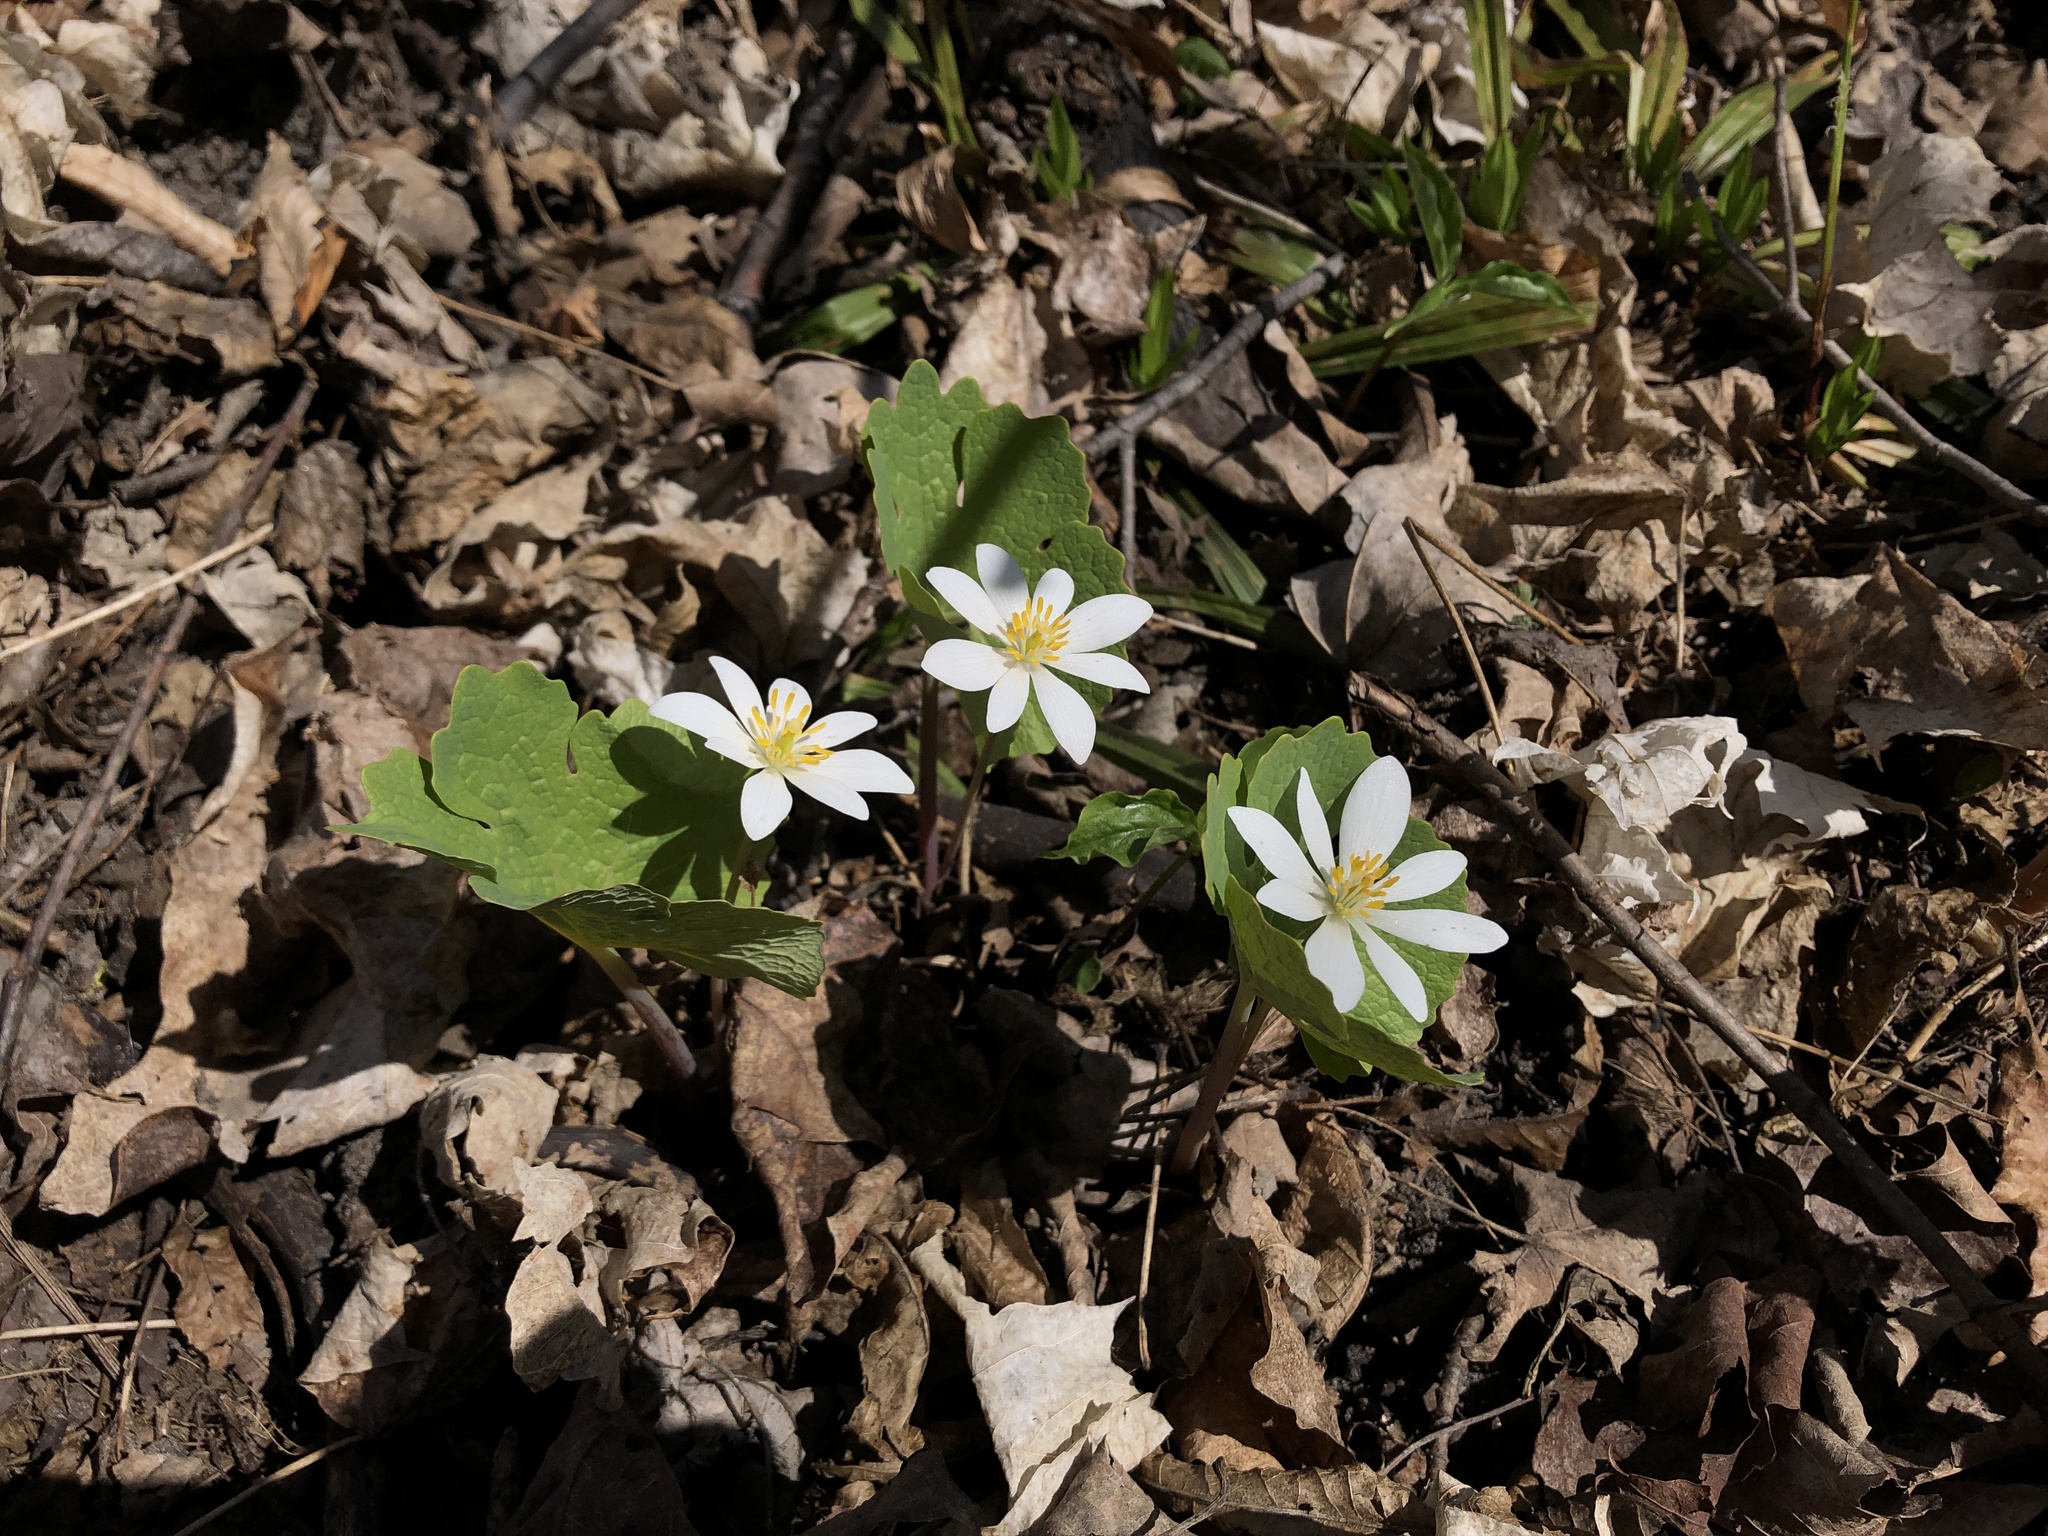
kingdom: Plantae
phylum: Tracheophyta
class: Magnoliopsida
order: Ranunculales
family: Papaveraceae
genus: Sanguinaria
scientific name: Sanguinaria canadensis
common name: Bloodroot
